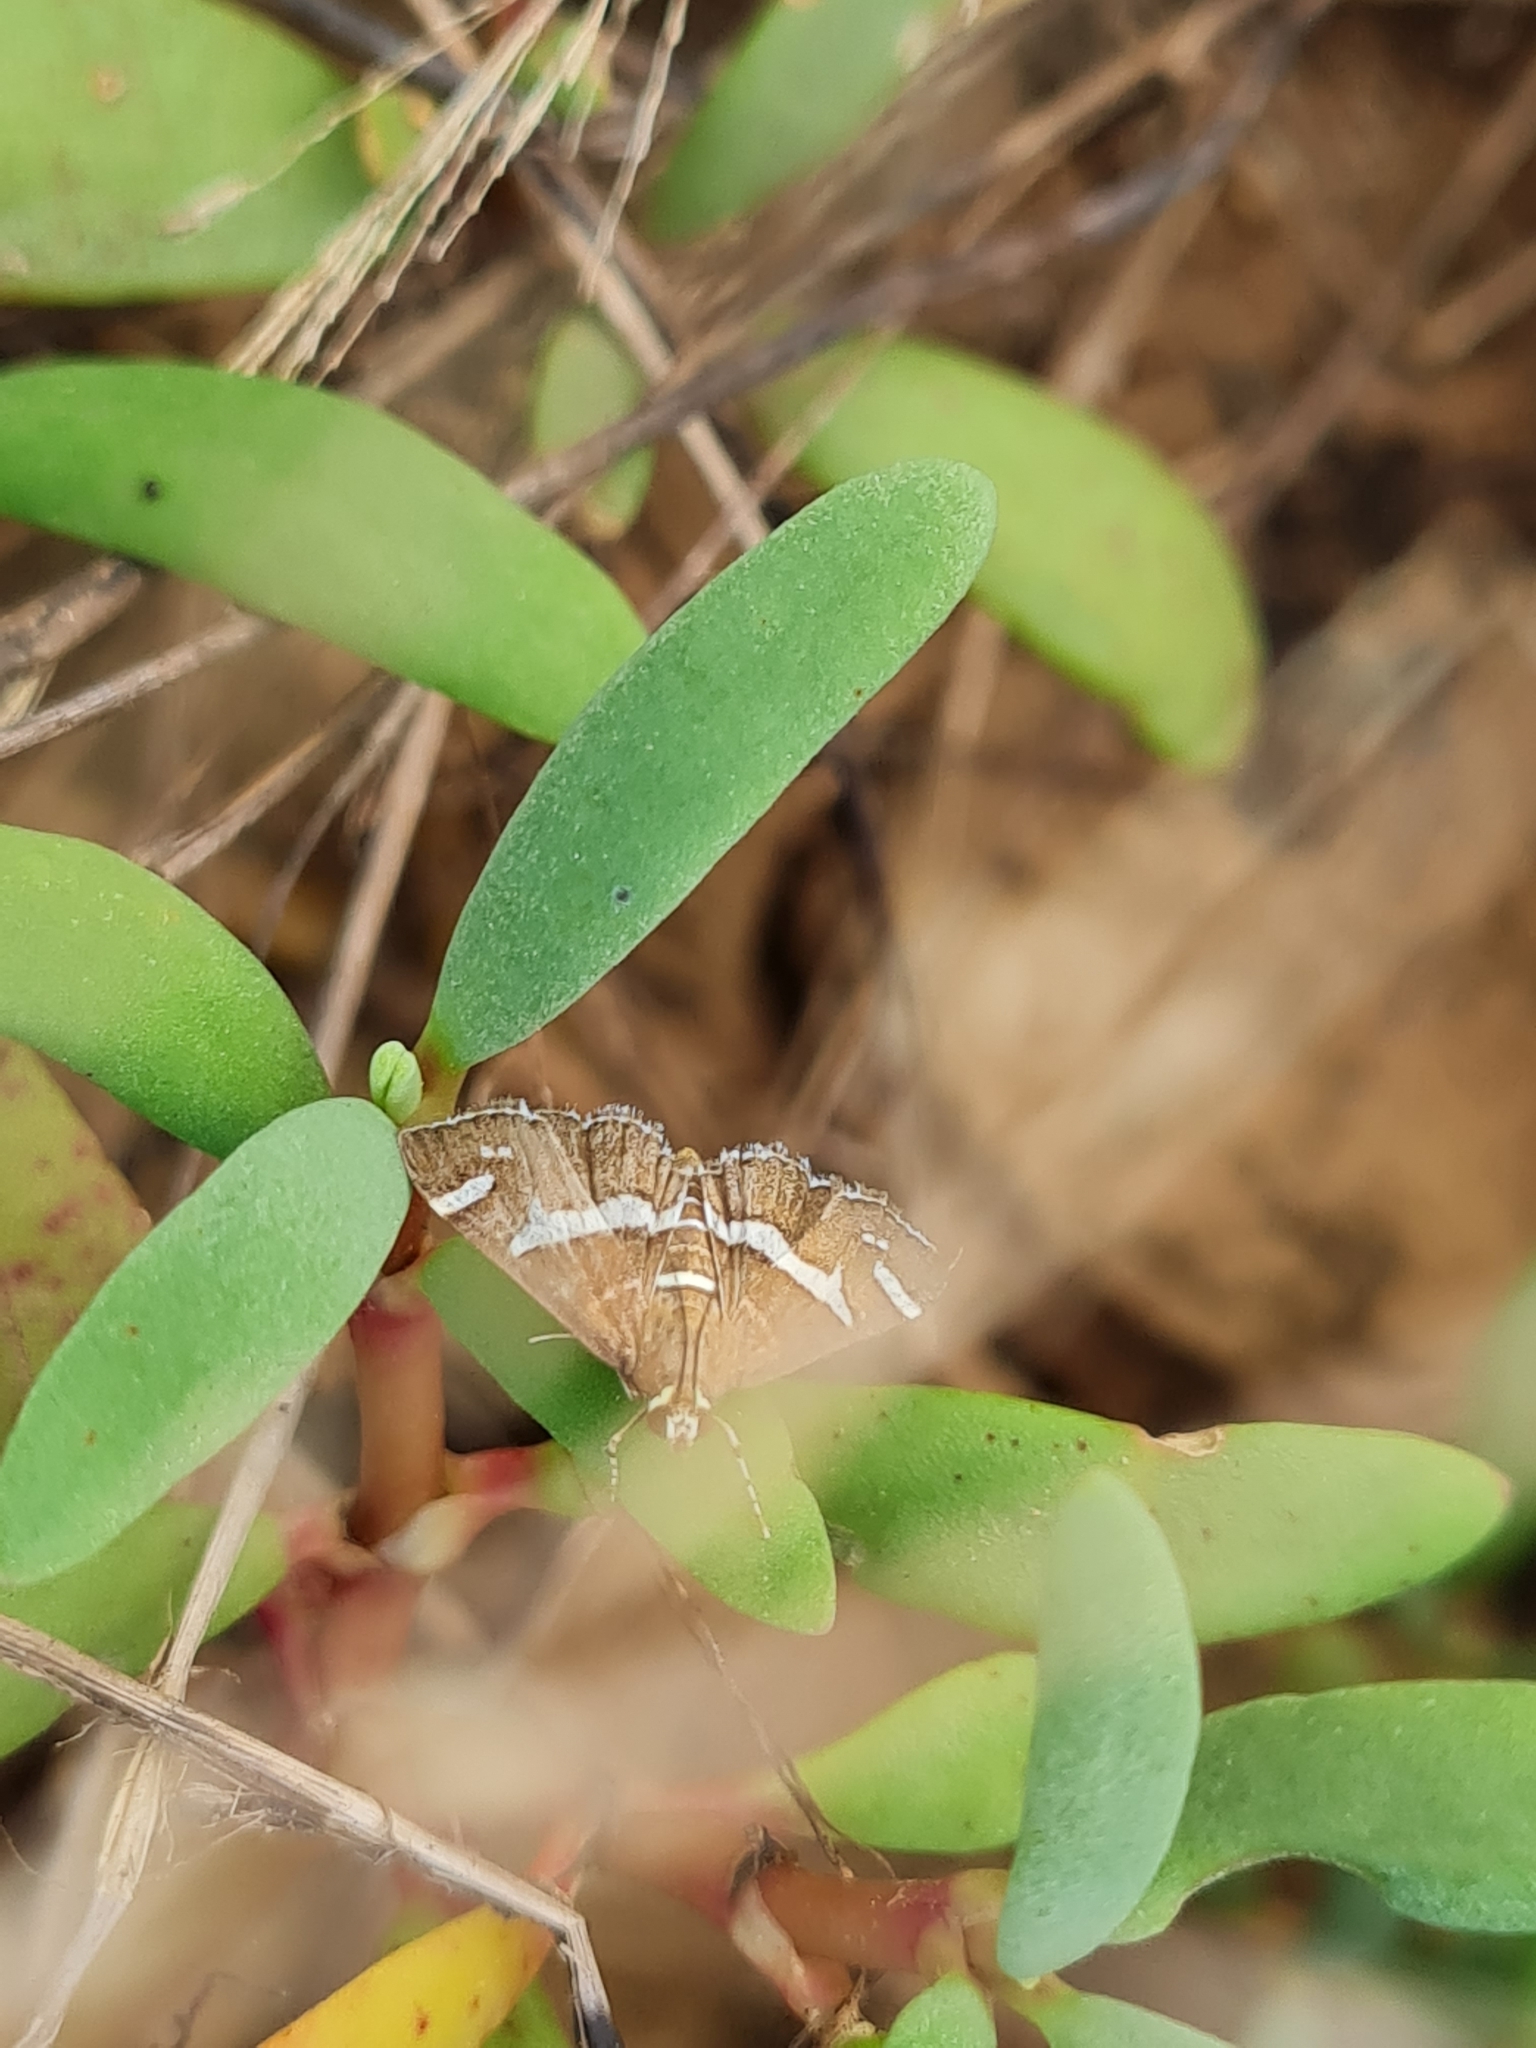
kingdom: Animalia
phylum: Arthropoda
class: Insecta
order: Lepidoptera
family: Crambidae
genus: Spoladea
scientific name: Spoladea recurvalis
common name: Beet webworm moth
